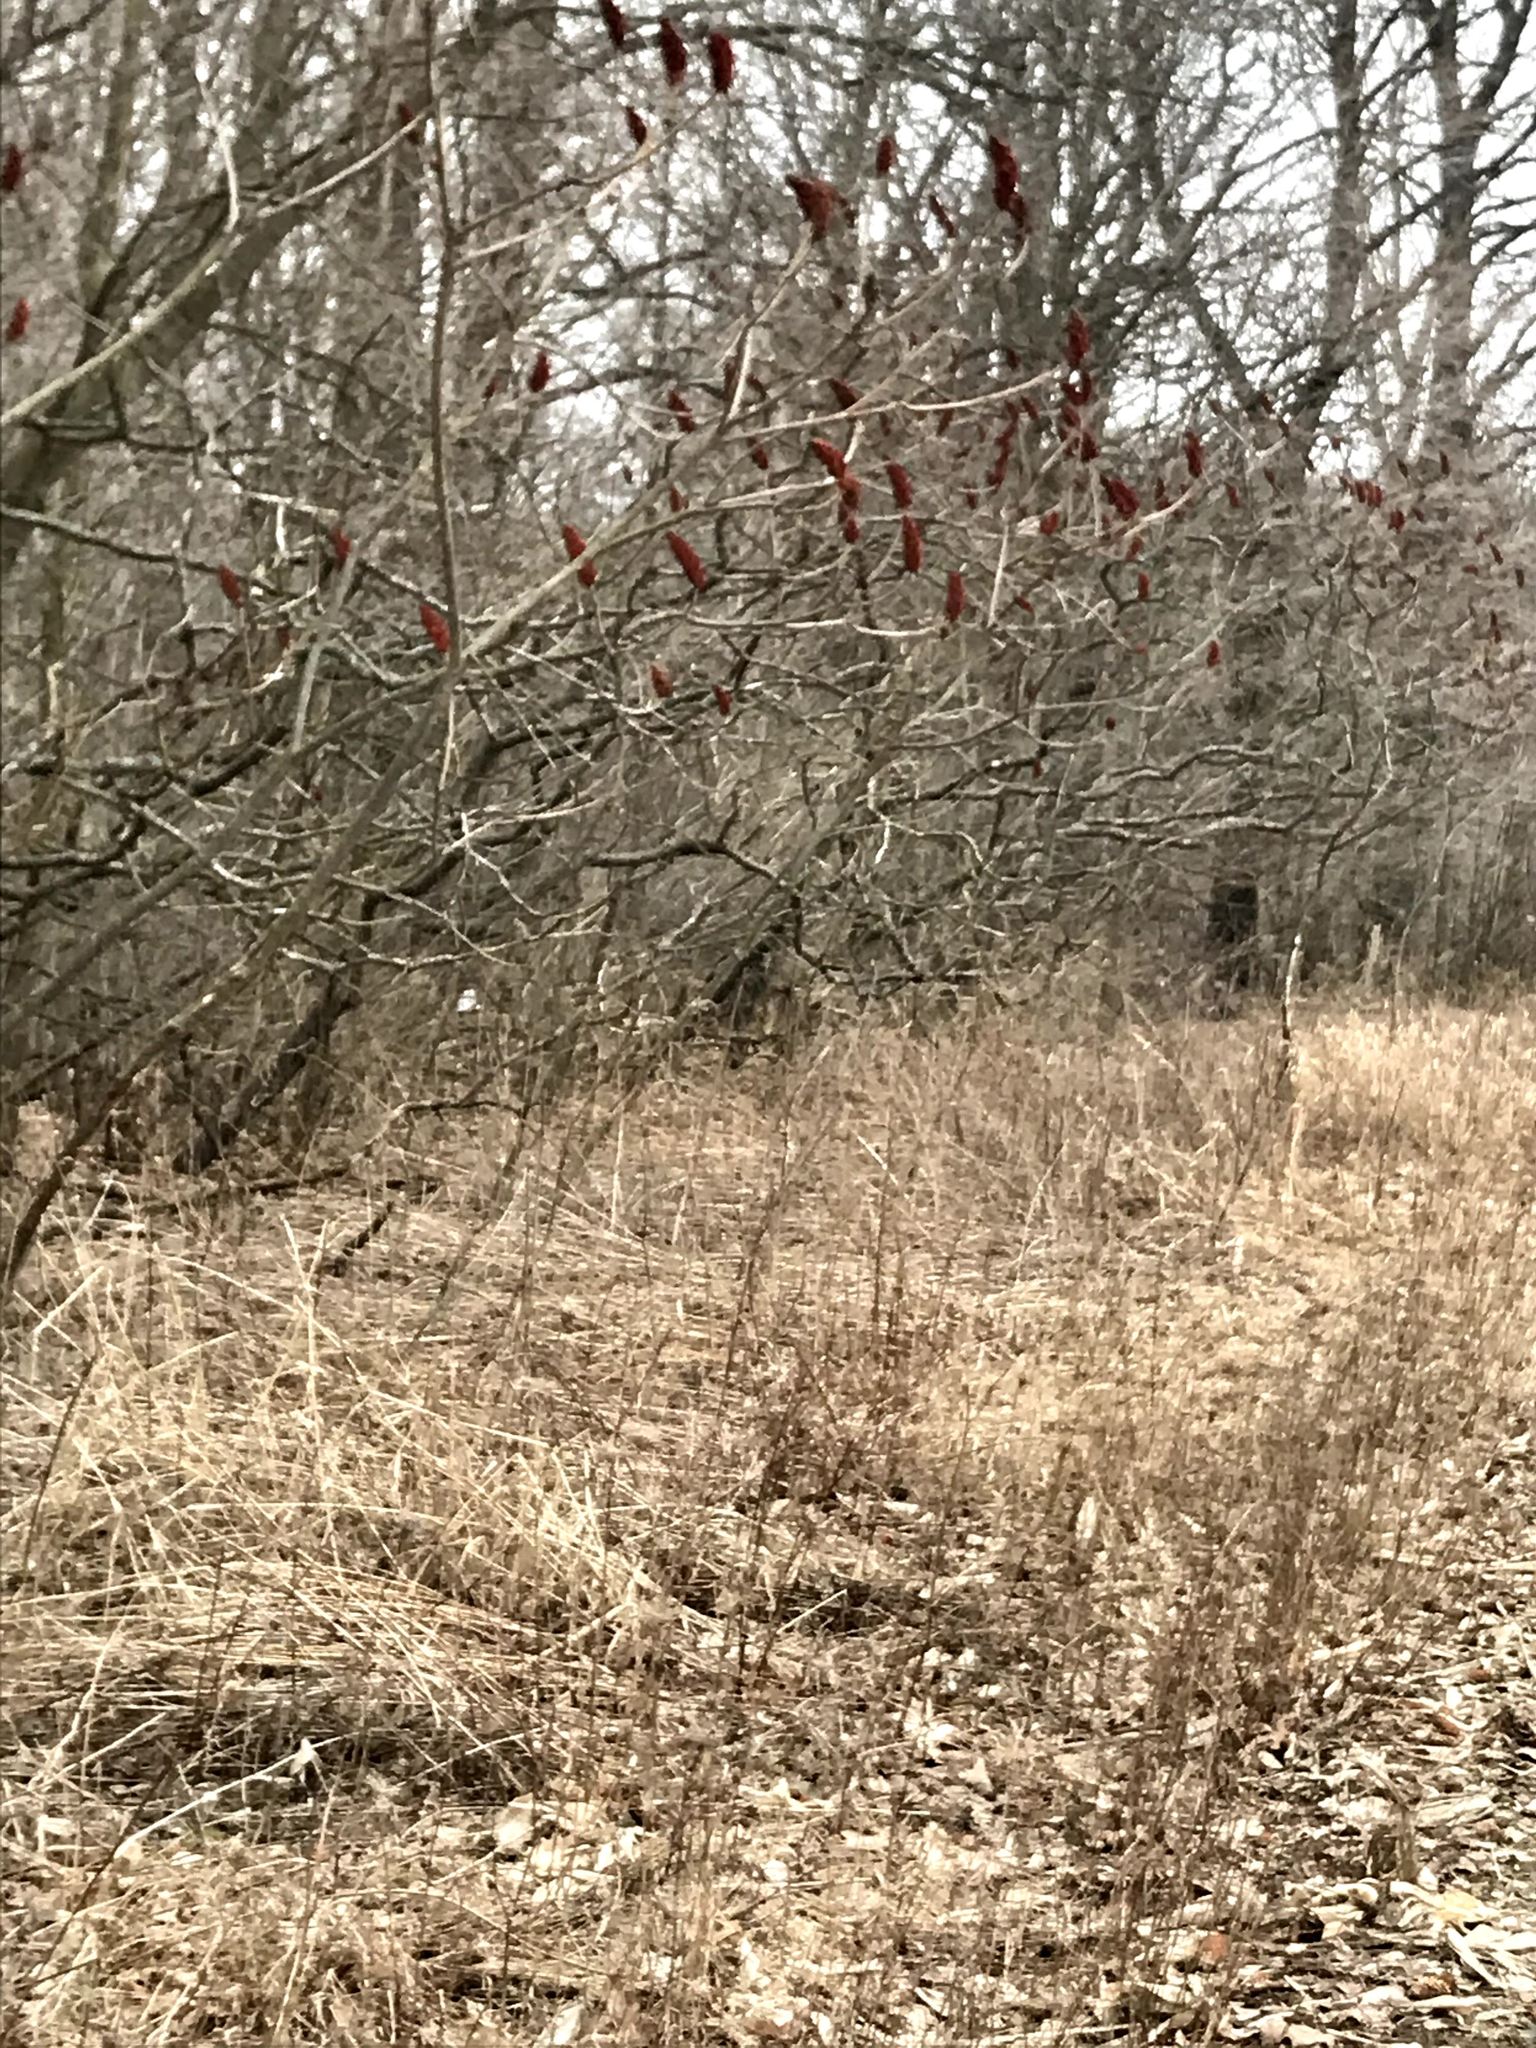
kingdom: Plantae
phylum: Tracheophyta
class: Magnoliopsida
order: Sapindales
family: Anacardiaceae
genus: Rhus
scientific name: Rhus typhina
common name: Staghorn sumac
